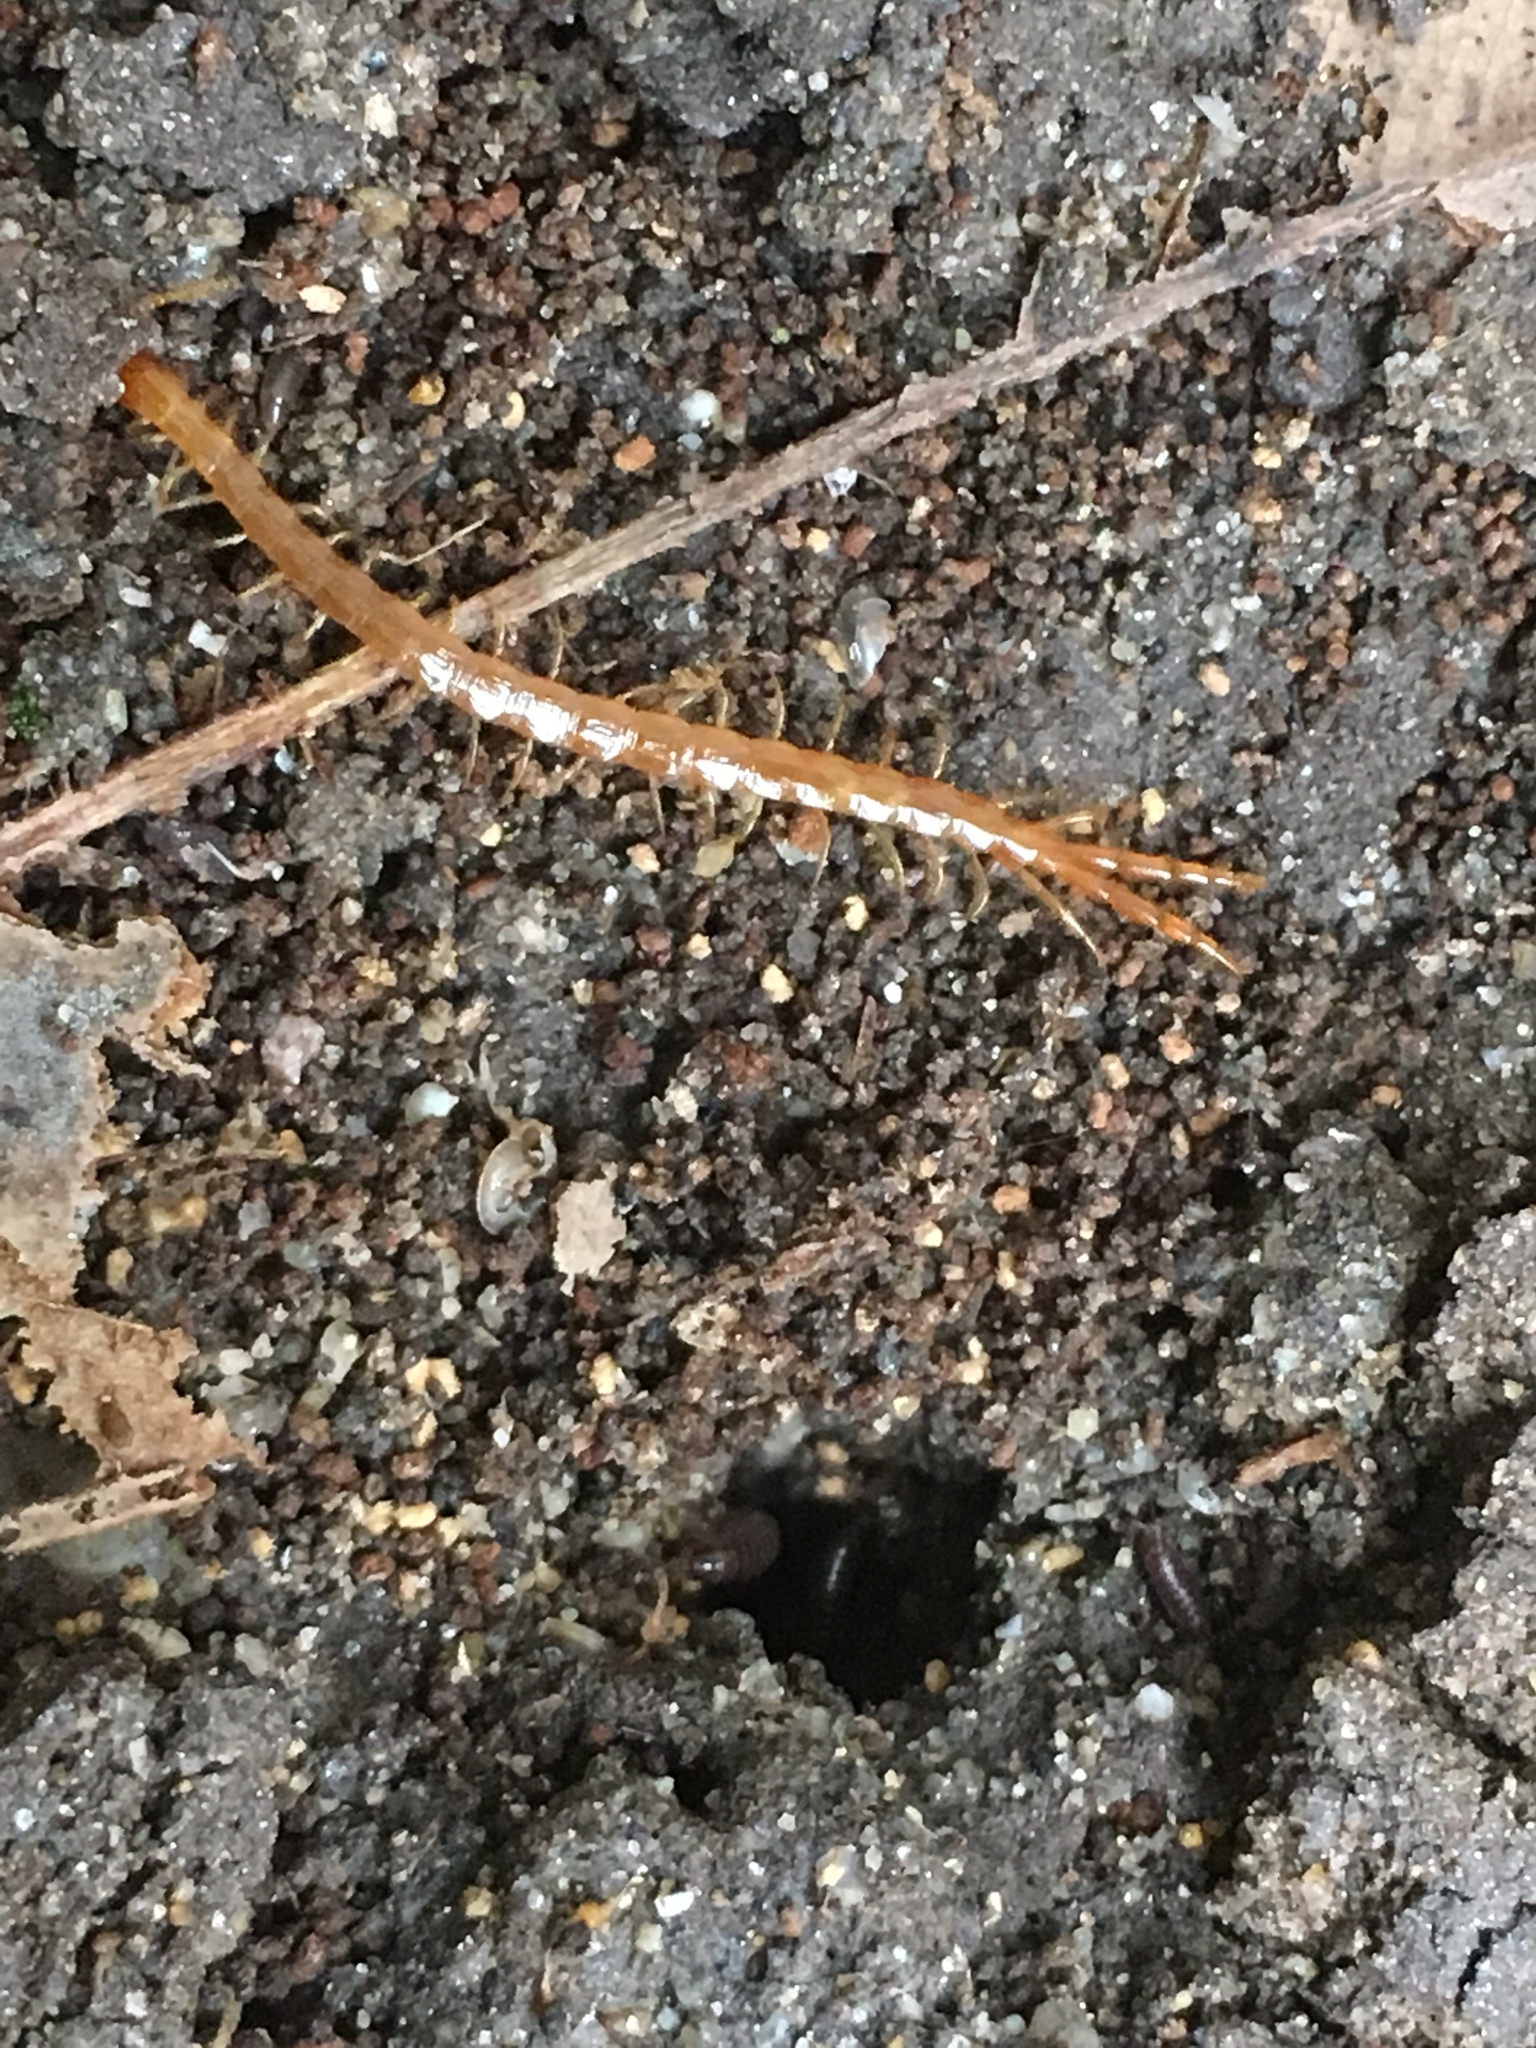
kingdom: Animalia
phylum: Arthropoda
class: Chilopoda
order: Scolopendromorpha
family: Cryptopidae
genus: Cryptops
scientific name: Cryptops hortensis
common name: Centipede
